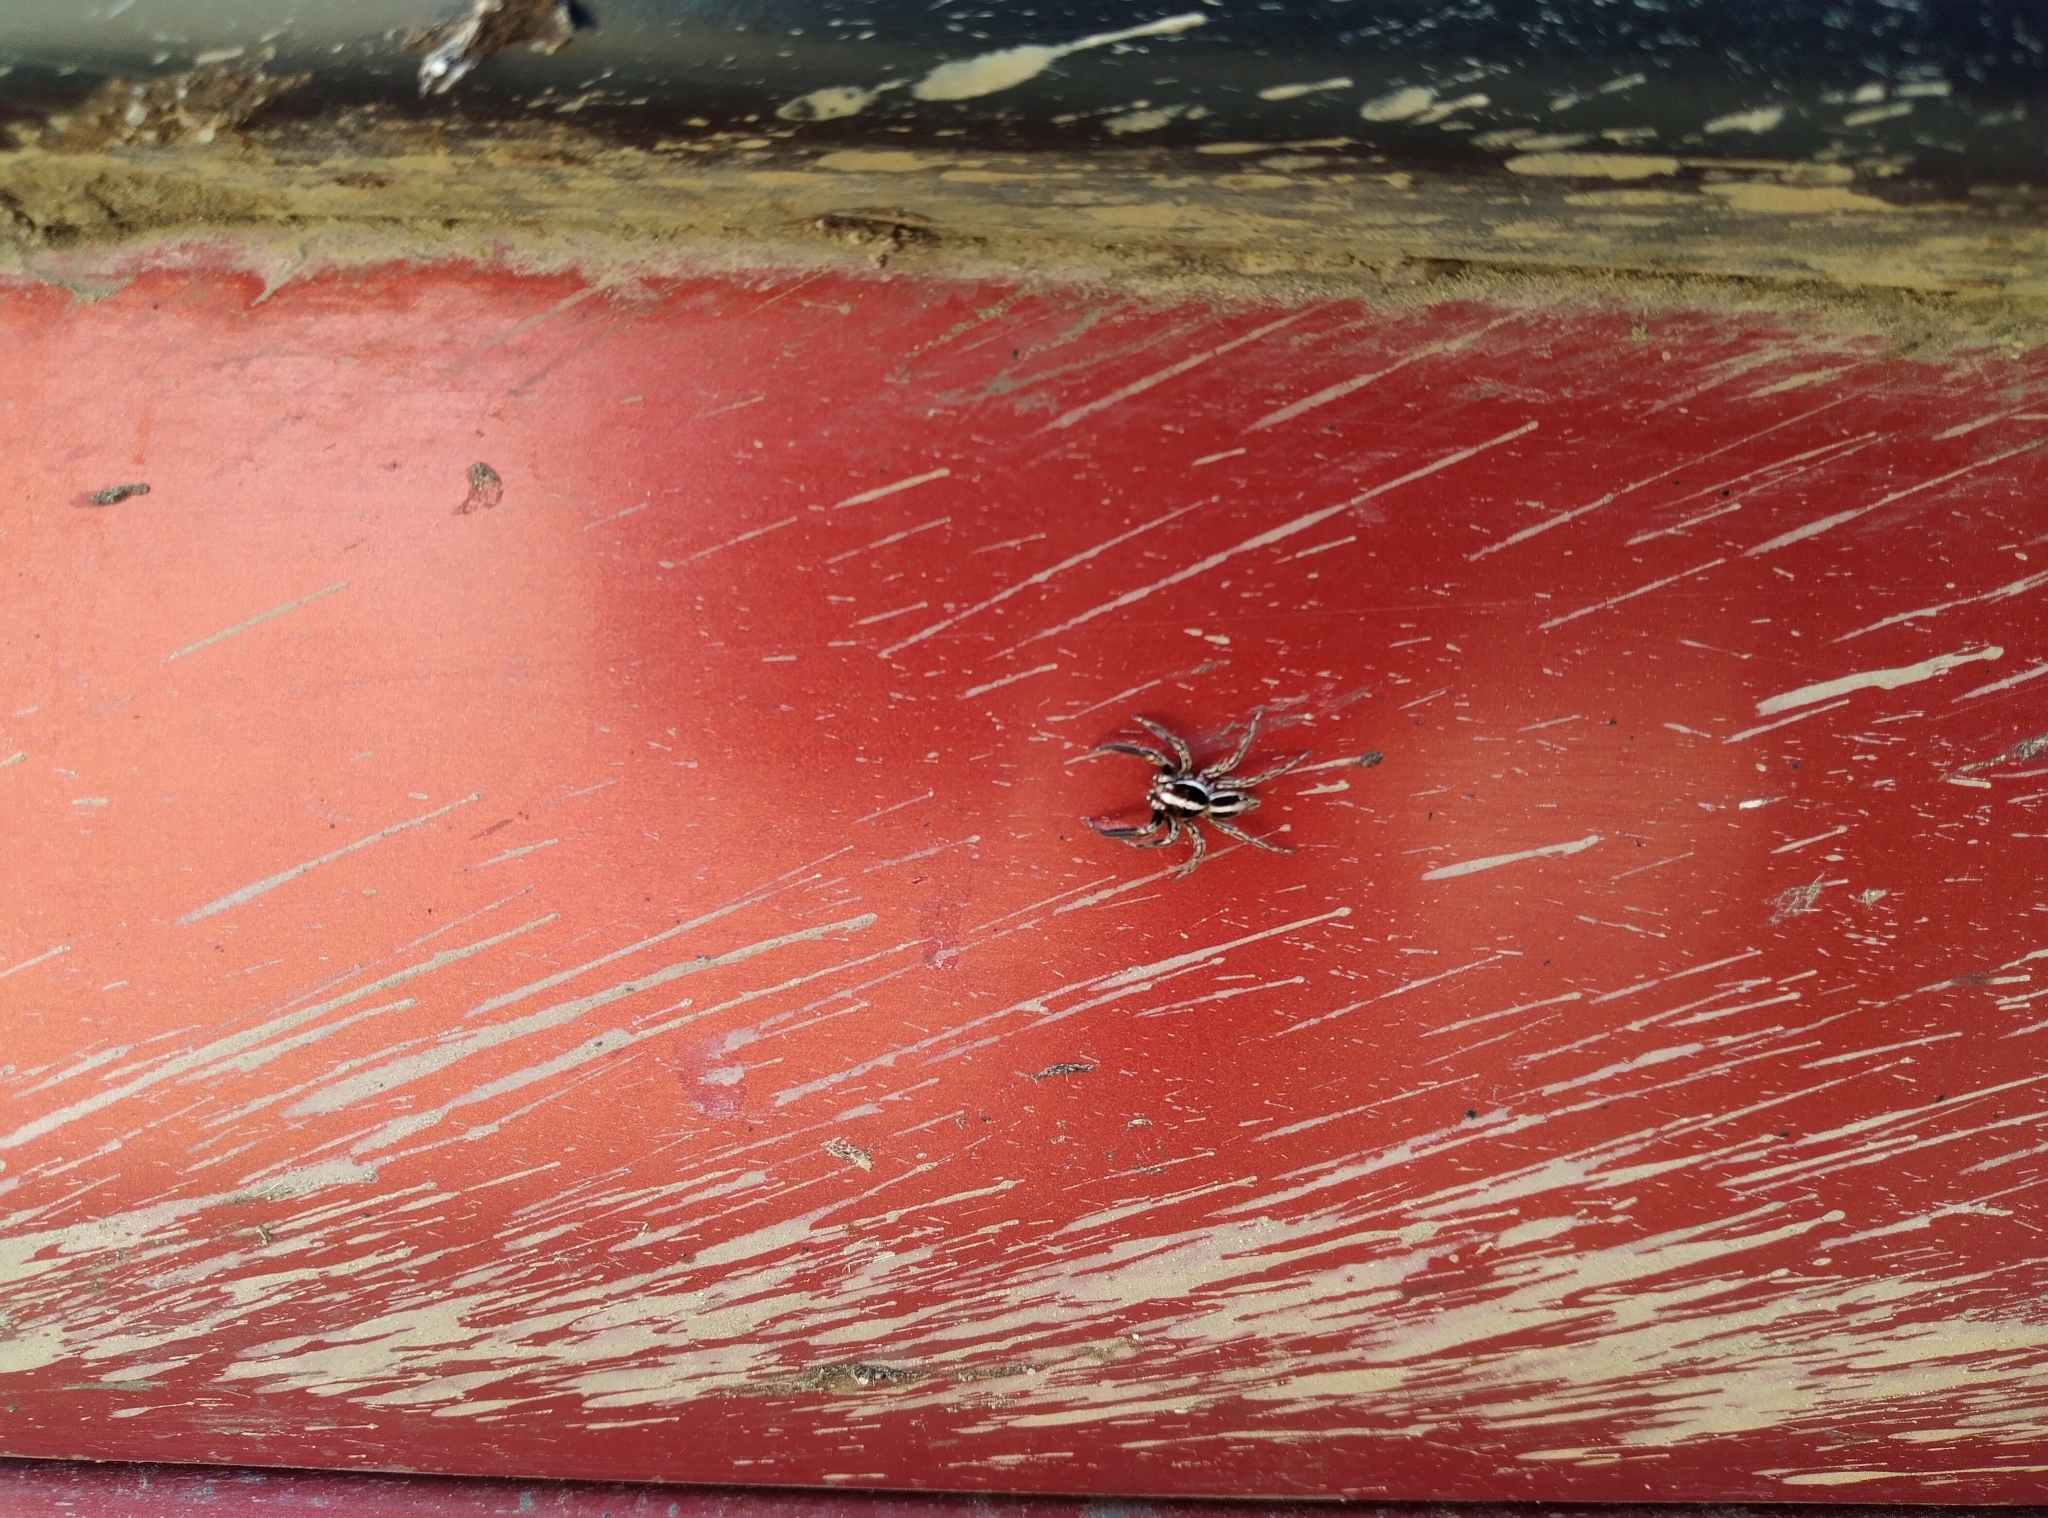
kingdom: Animalia
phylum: Arthropoda
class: Arachnida
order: Araneae
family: Salticidae
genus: Plexippus
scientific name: Plexippus paykulli
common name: Pantropical jumper
